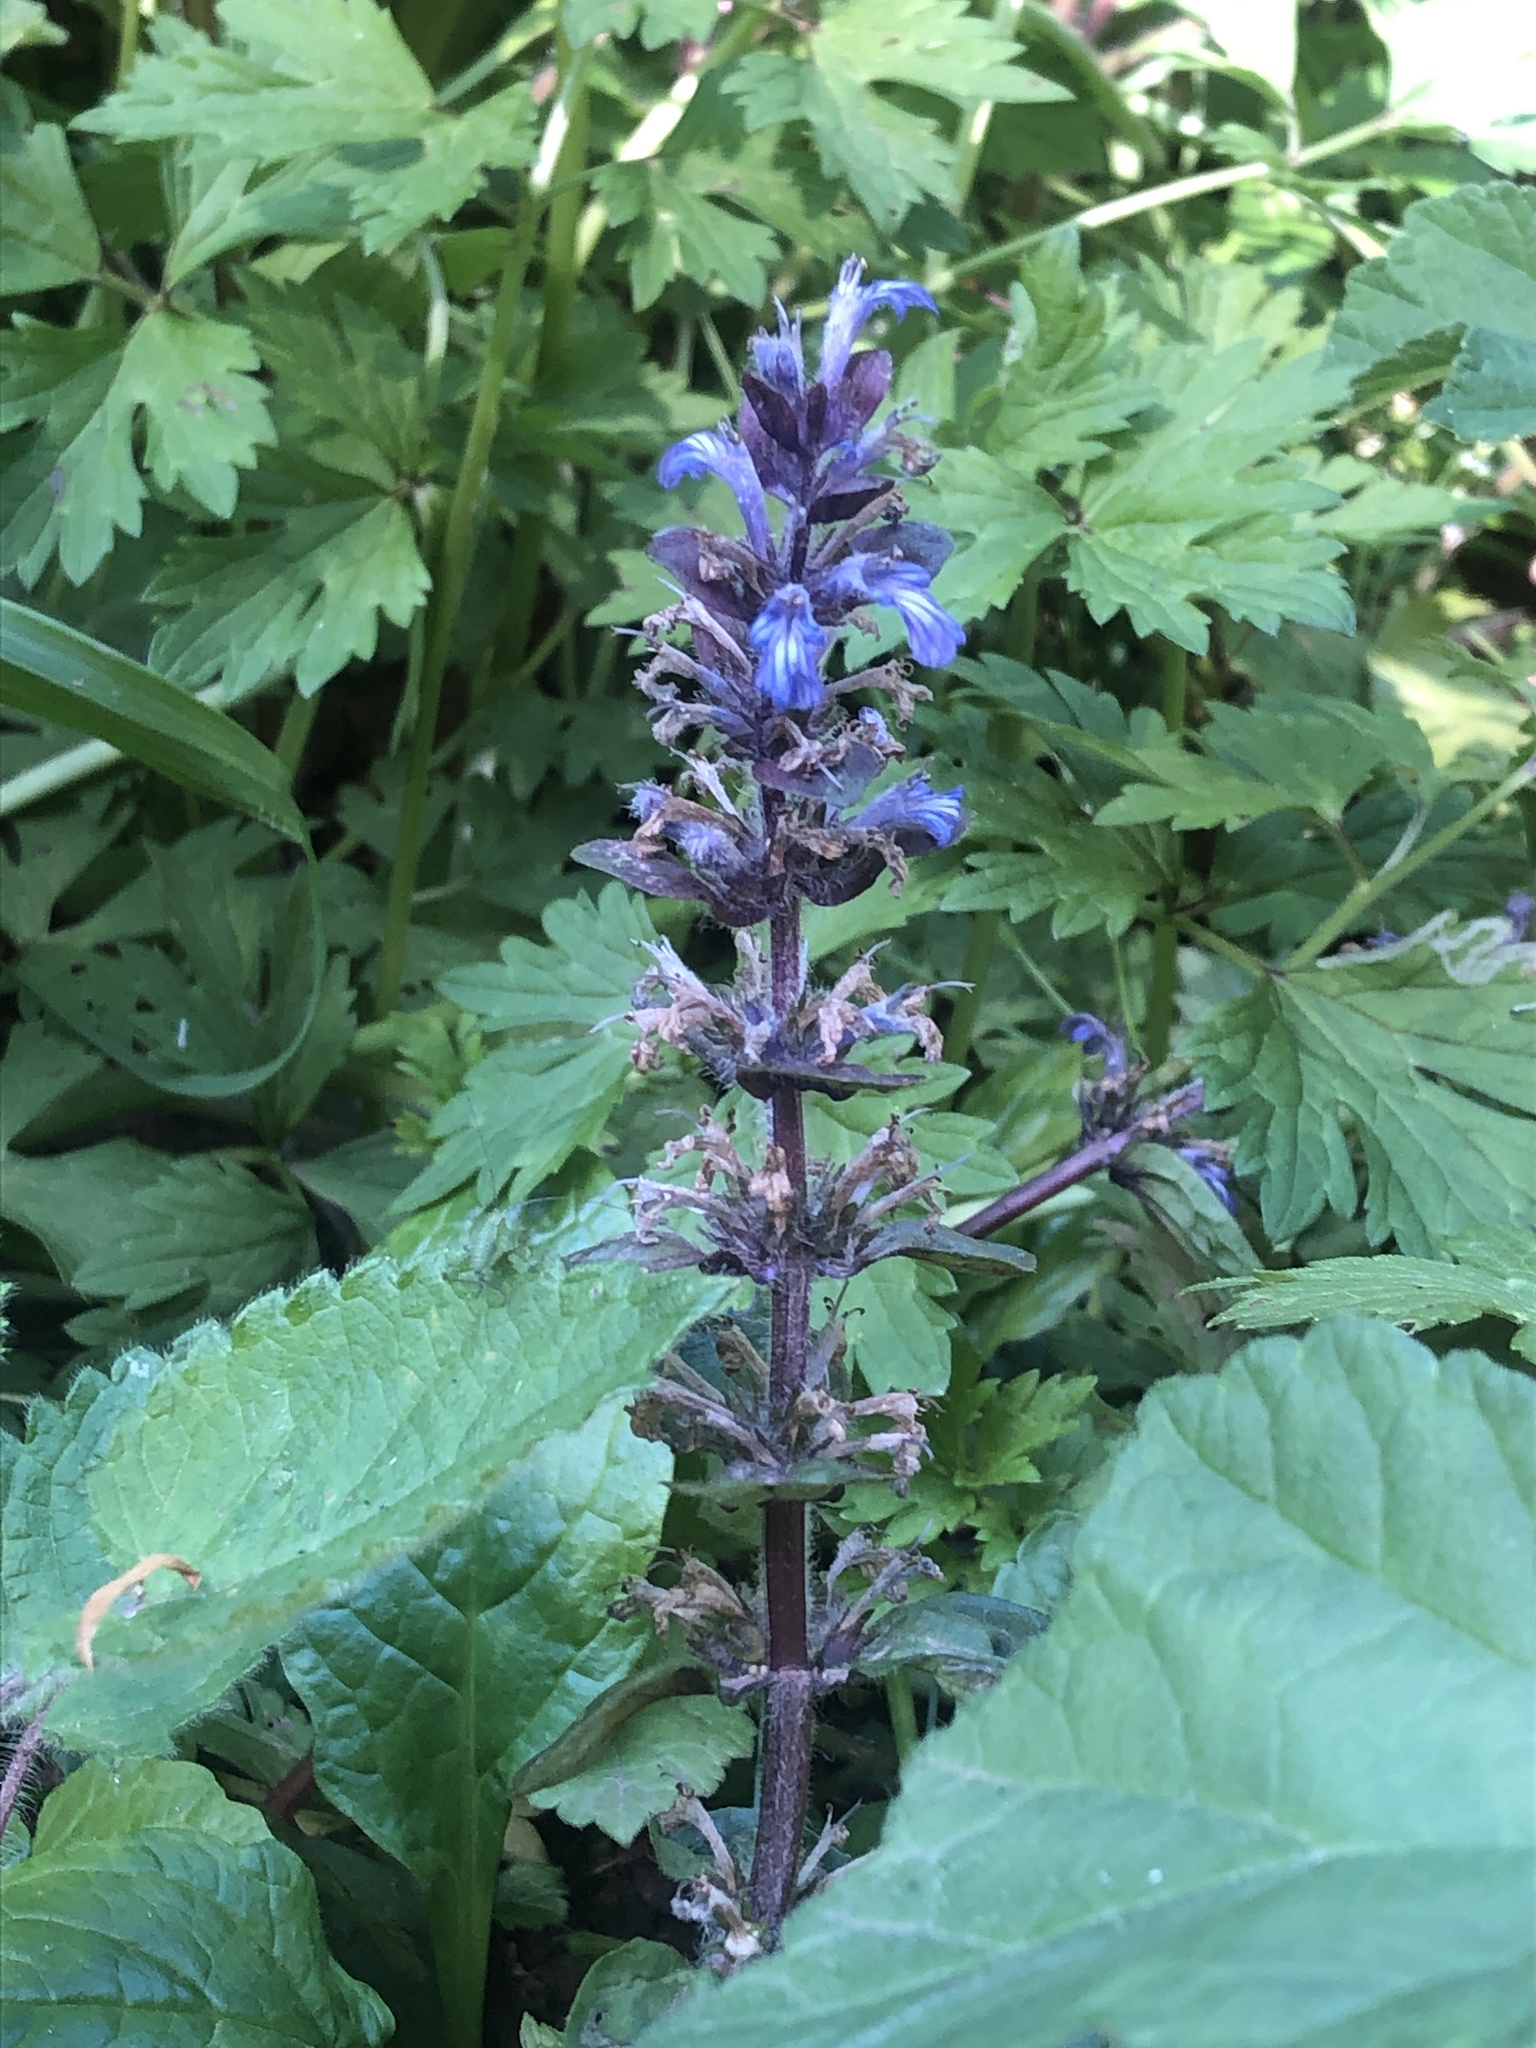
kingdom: Plantae
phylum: Tracheophyta
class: Magnoliopsida
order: Lamiales
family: Lamiaceae
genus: Ajuga
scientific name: Ajuga reptans
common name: Bugle
